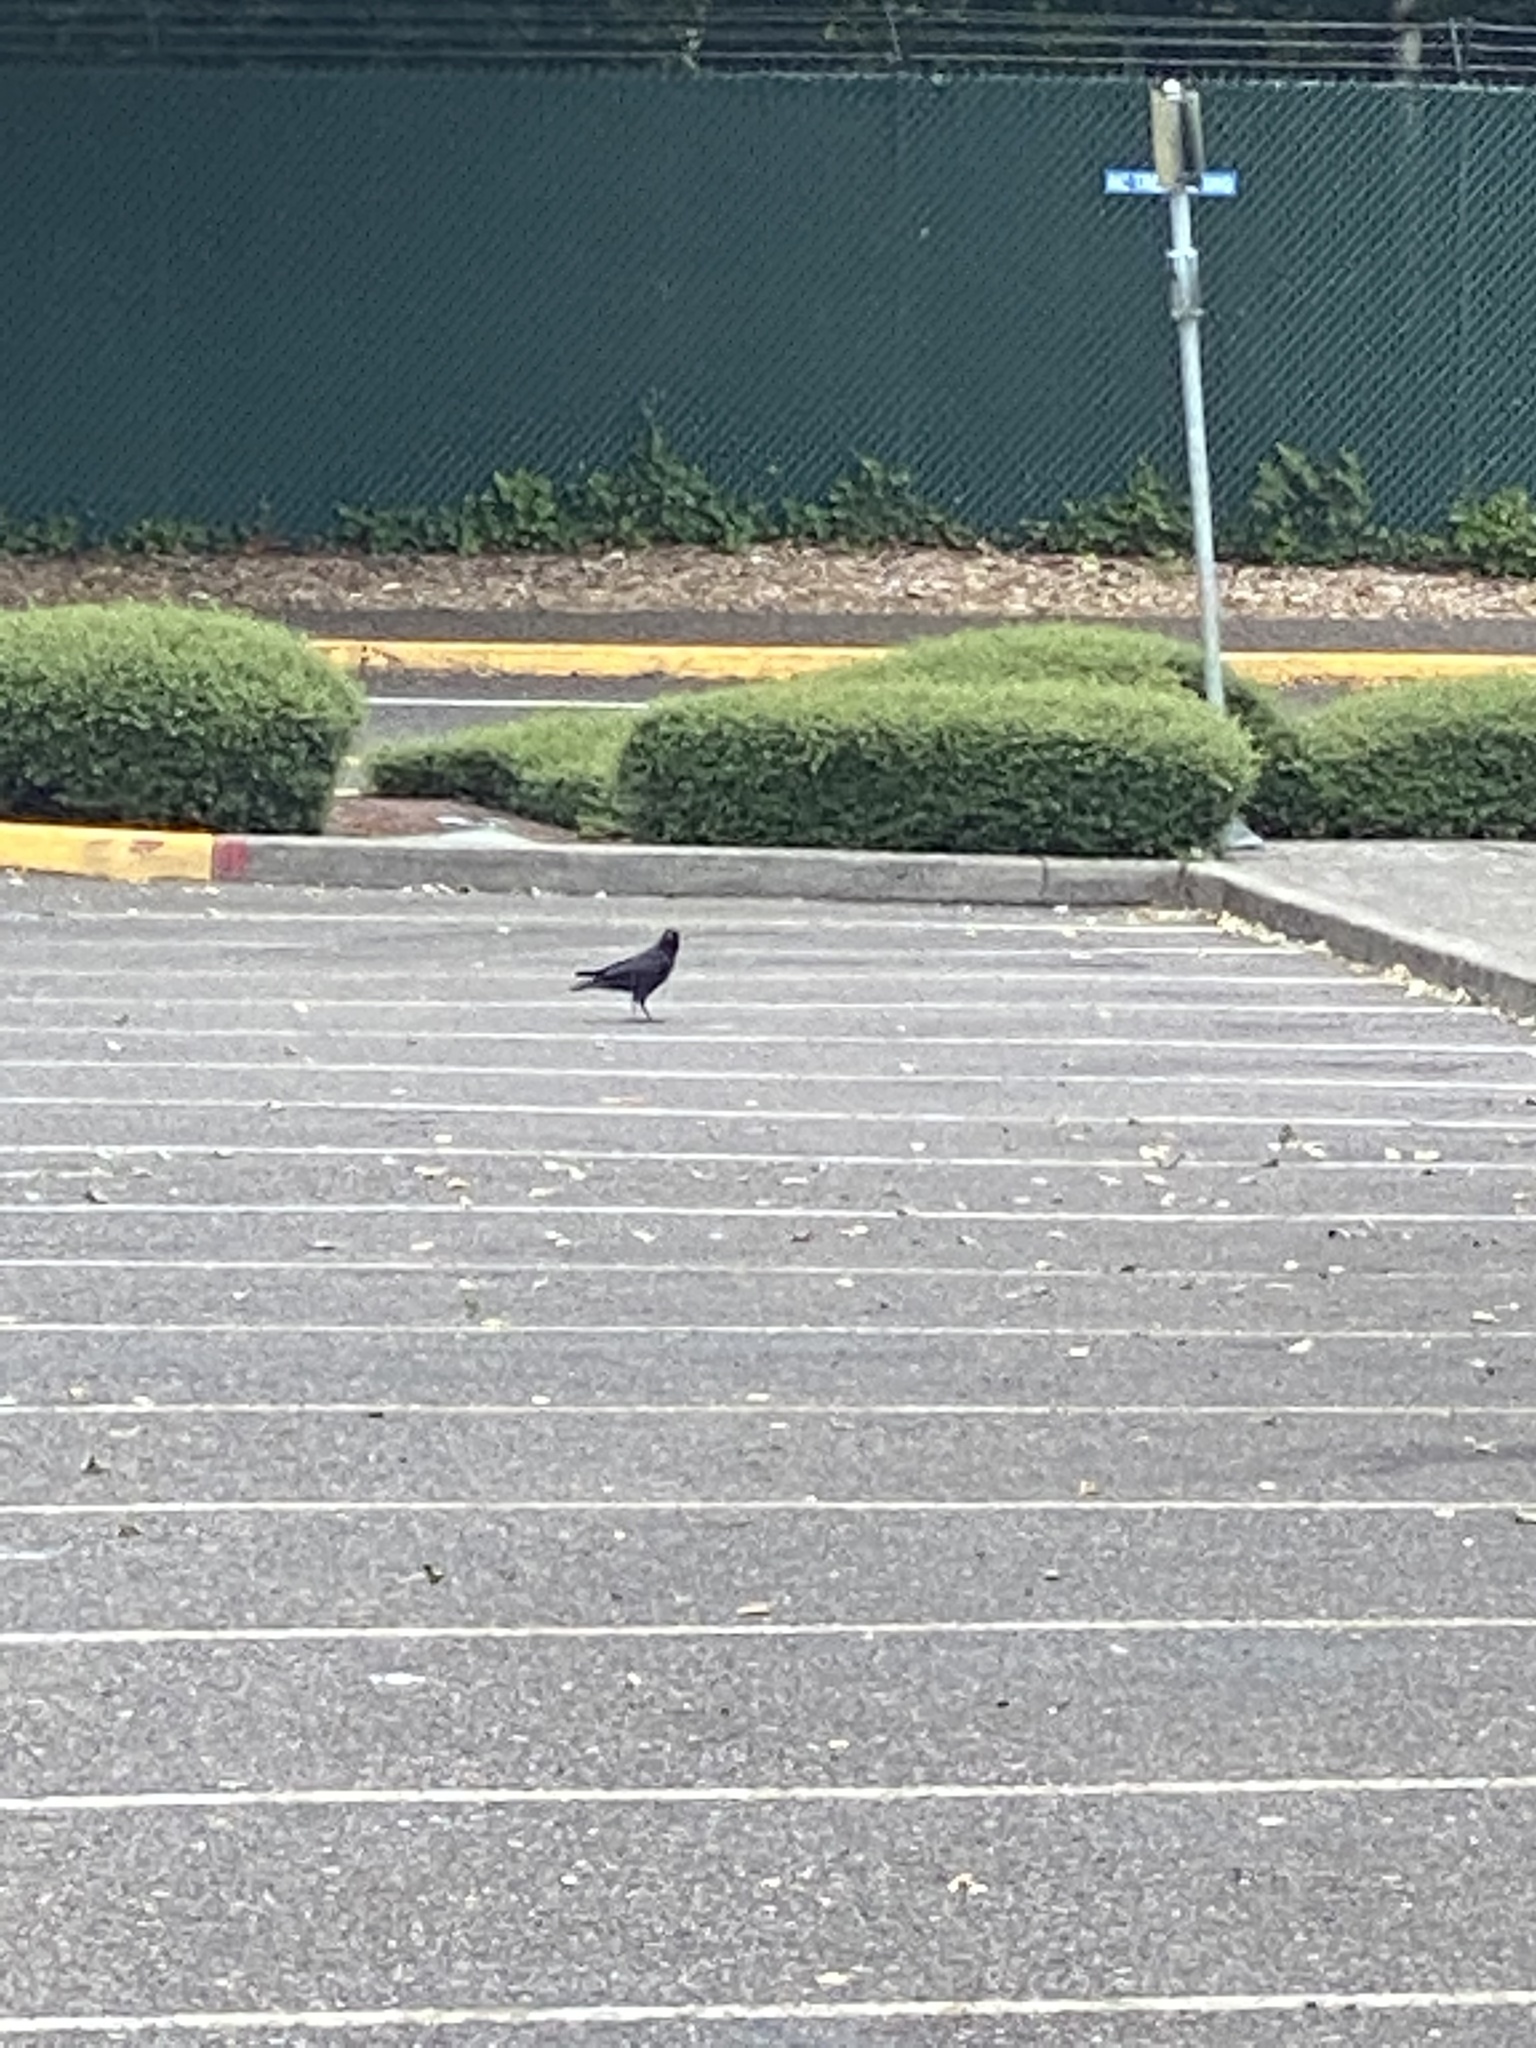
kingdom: Animalia
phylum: Chordata
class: Aves
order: Passeriformes
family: Corvidae
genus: Corvus
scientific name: Corvus brachyrhynchos
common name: American crow
